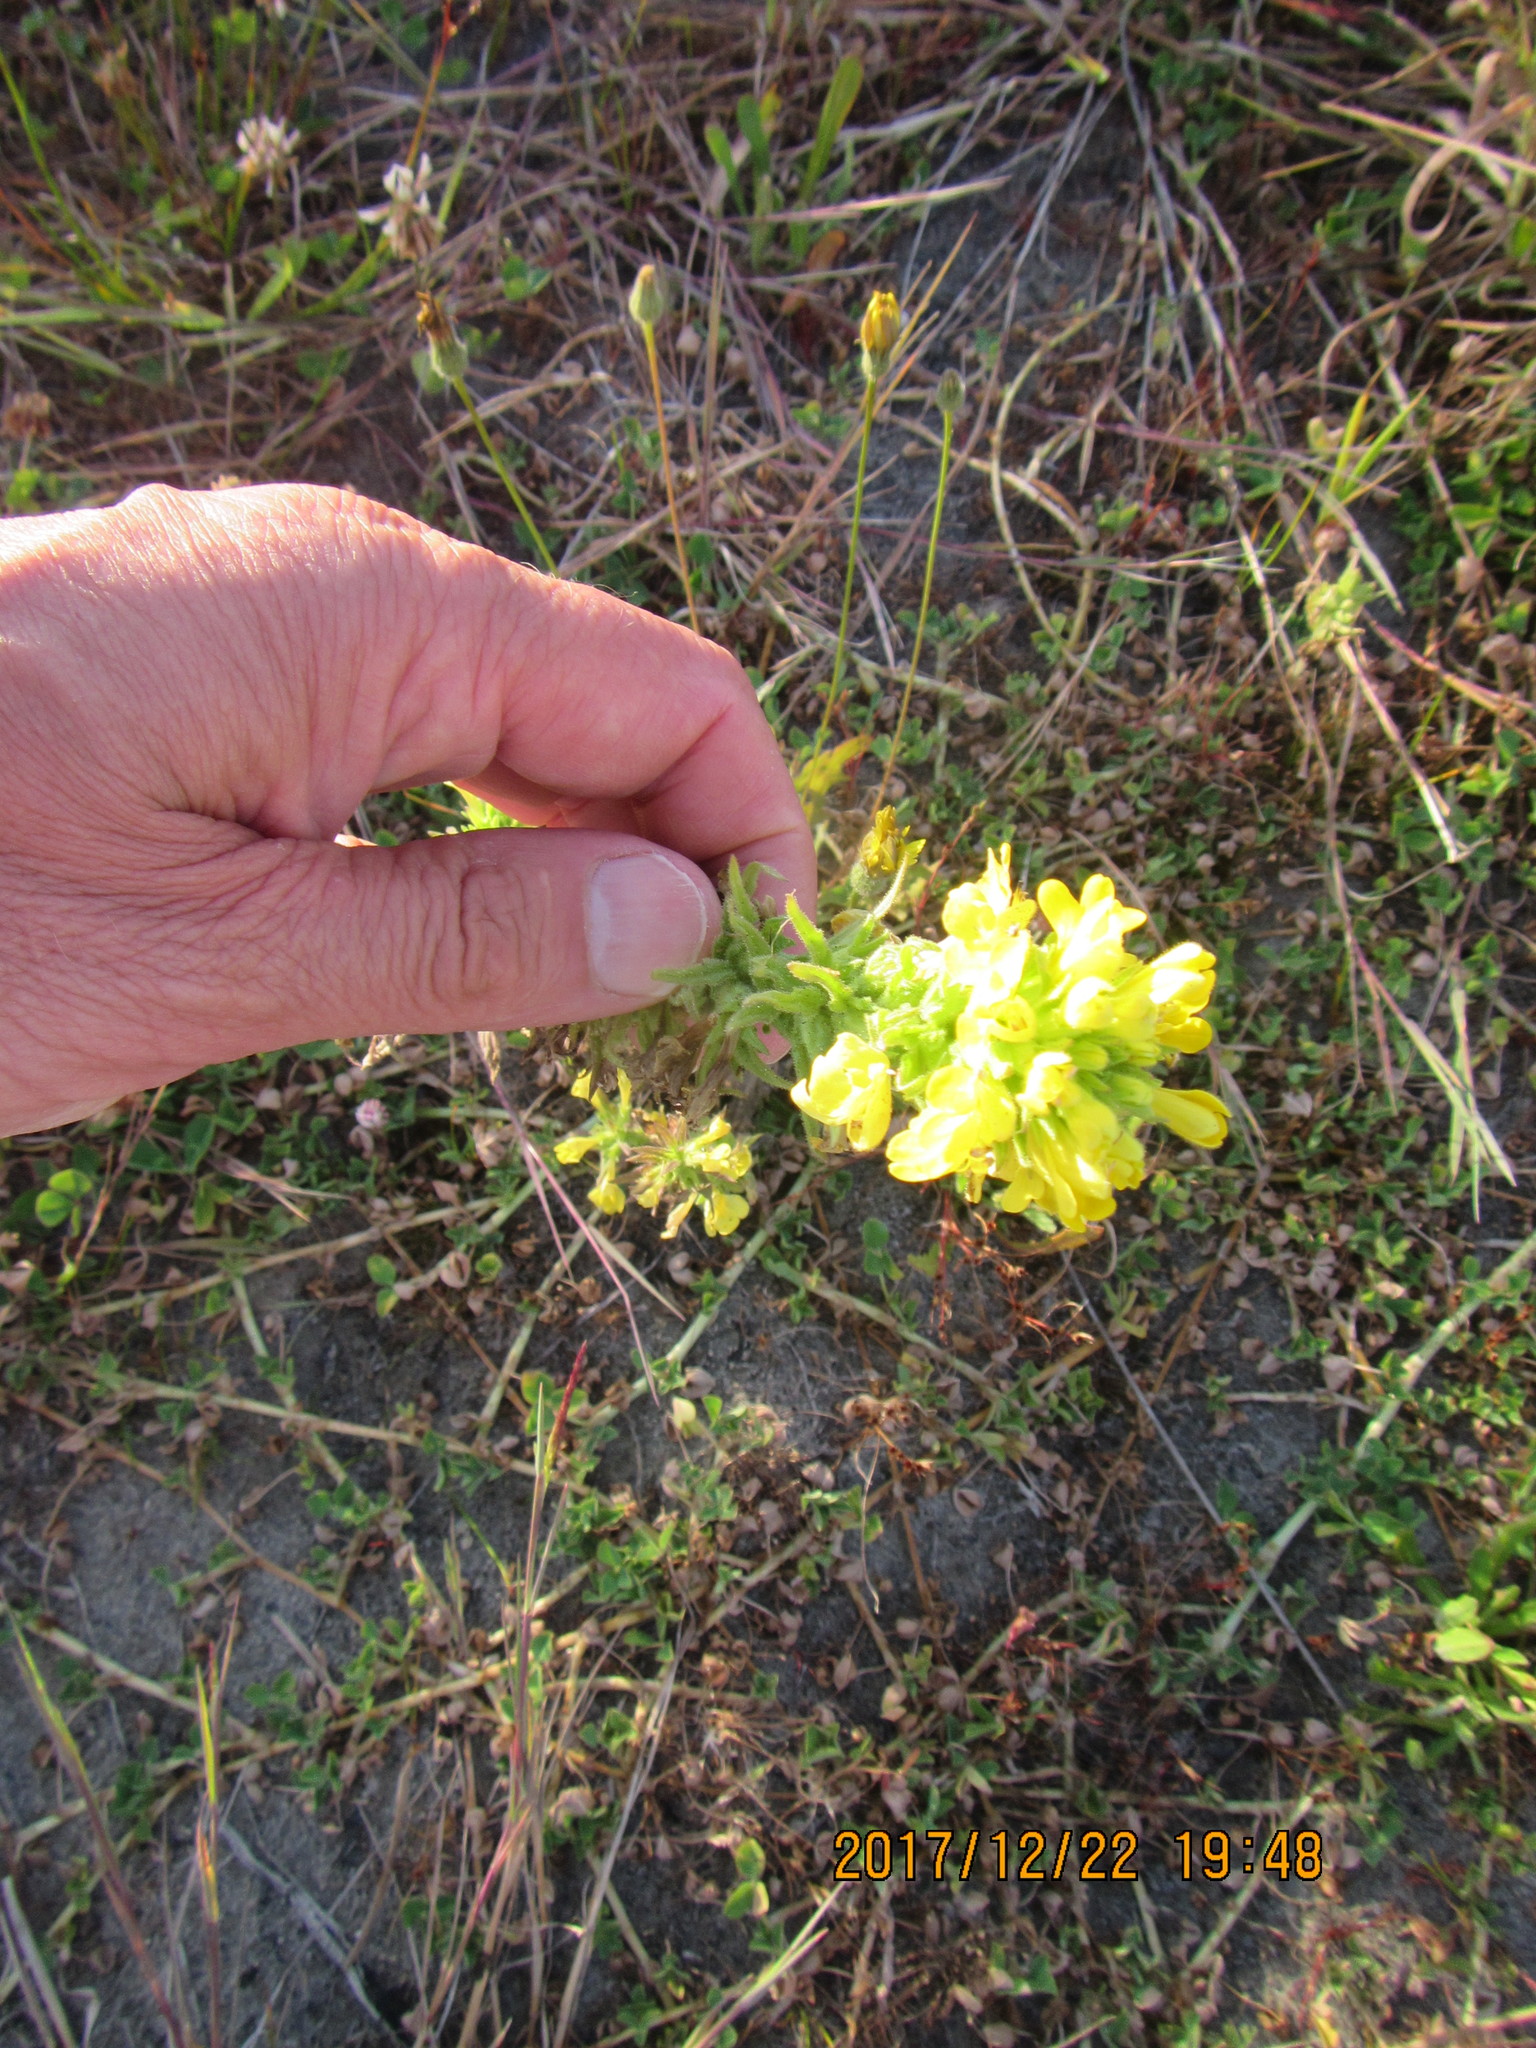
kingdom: Plantae
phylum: Tracheophyta
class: Magnoliopsida
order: Lamiales
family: Orobanchaceae
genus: Bellardia
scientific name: Bellardia viscosa
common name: Sticky parentucellia
